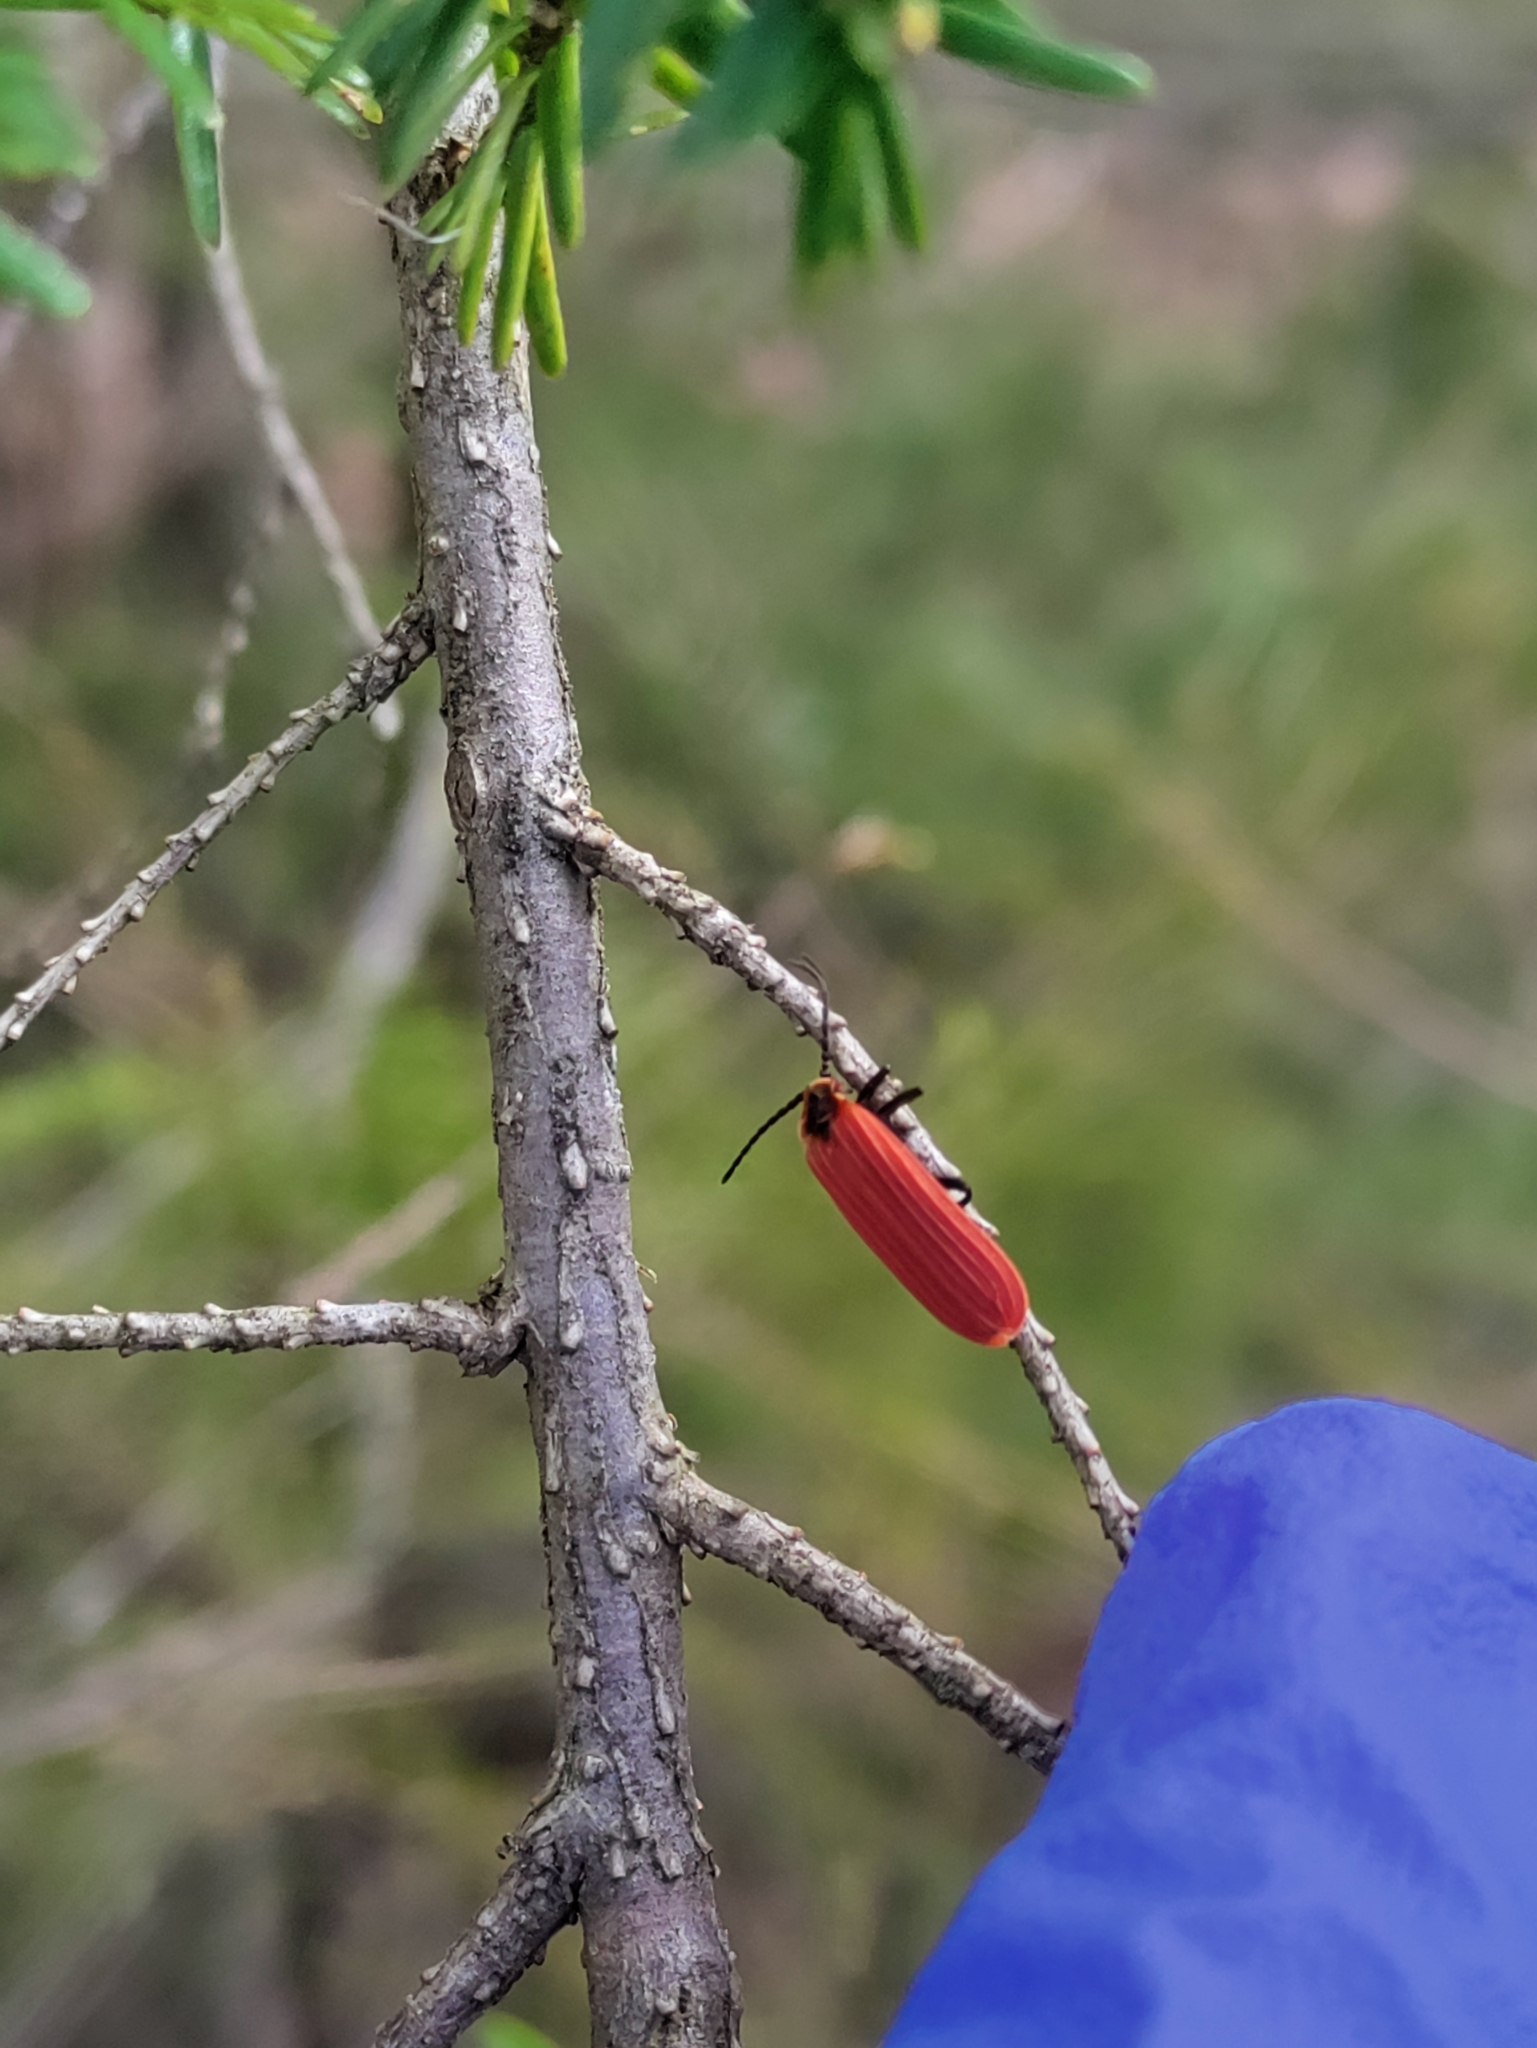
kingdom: Animalia
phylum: Arthropoda
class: Insecta
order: Coleoptera
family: Lycidae
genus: Dictyoptera
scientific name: Dictyoptera aurora
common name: Golden net-winged beetle
